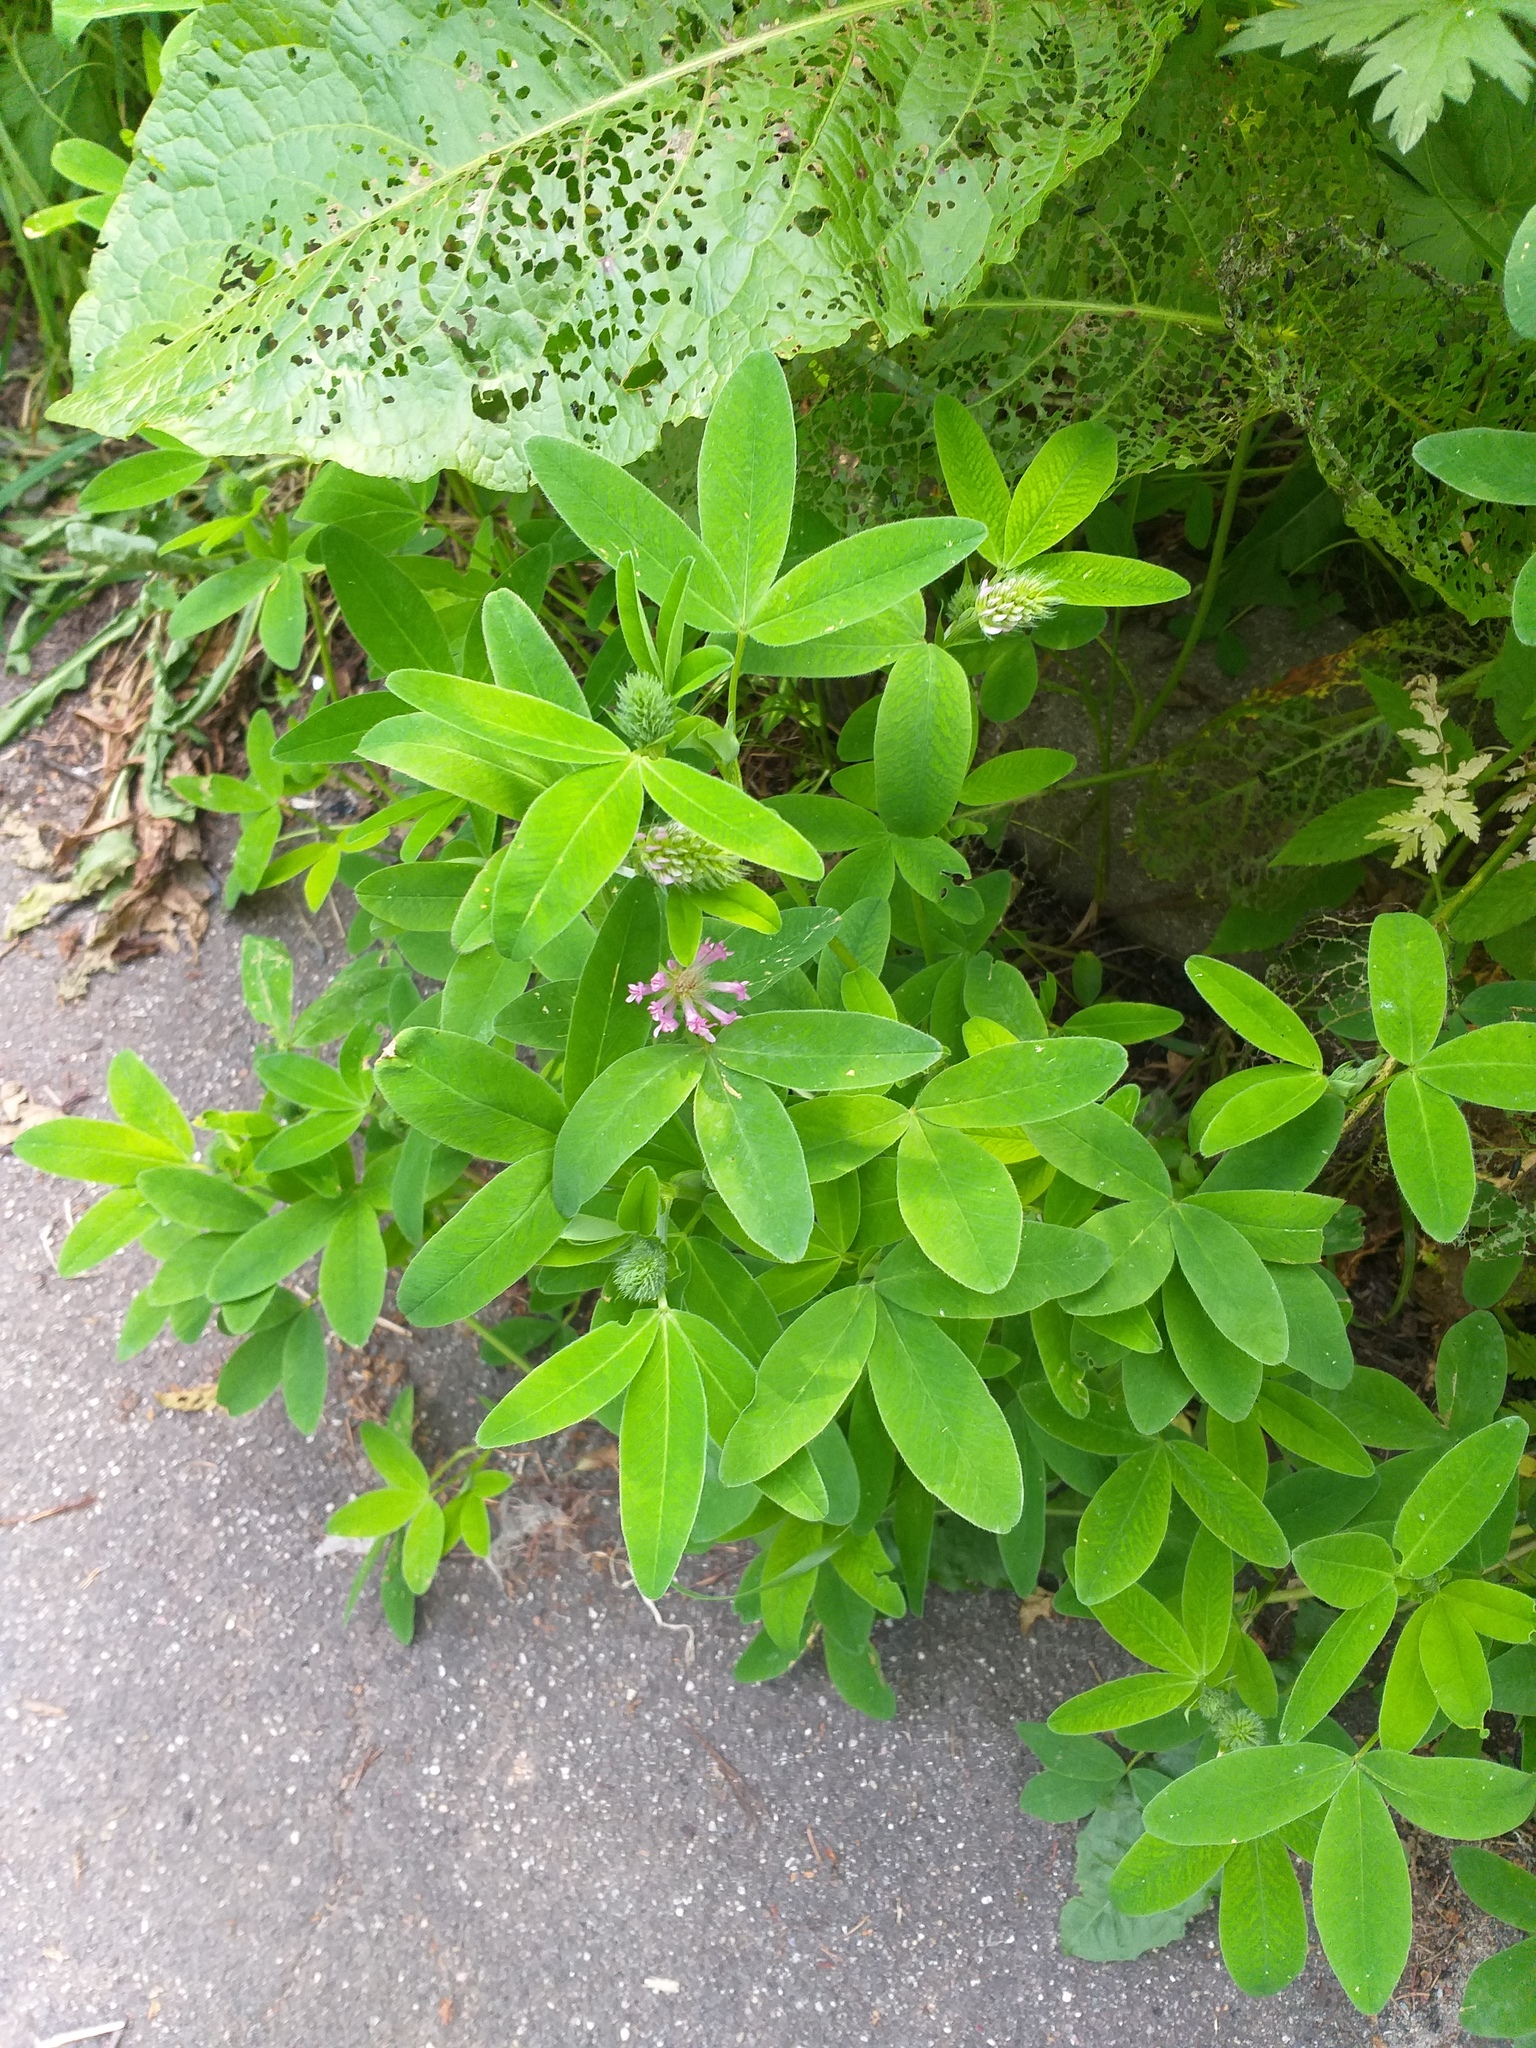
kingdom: Plantae
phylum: Tracheophyta
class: Magnoliopsida
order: Fabales
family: Fabaceae
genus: Trifolium
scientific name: Trifolium medium
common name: Zigzag clover
